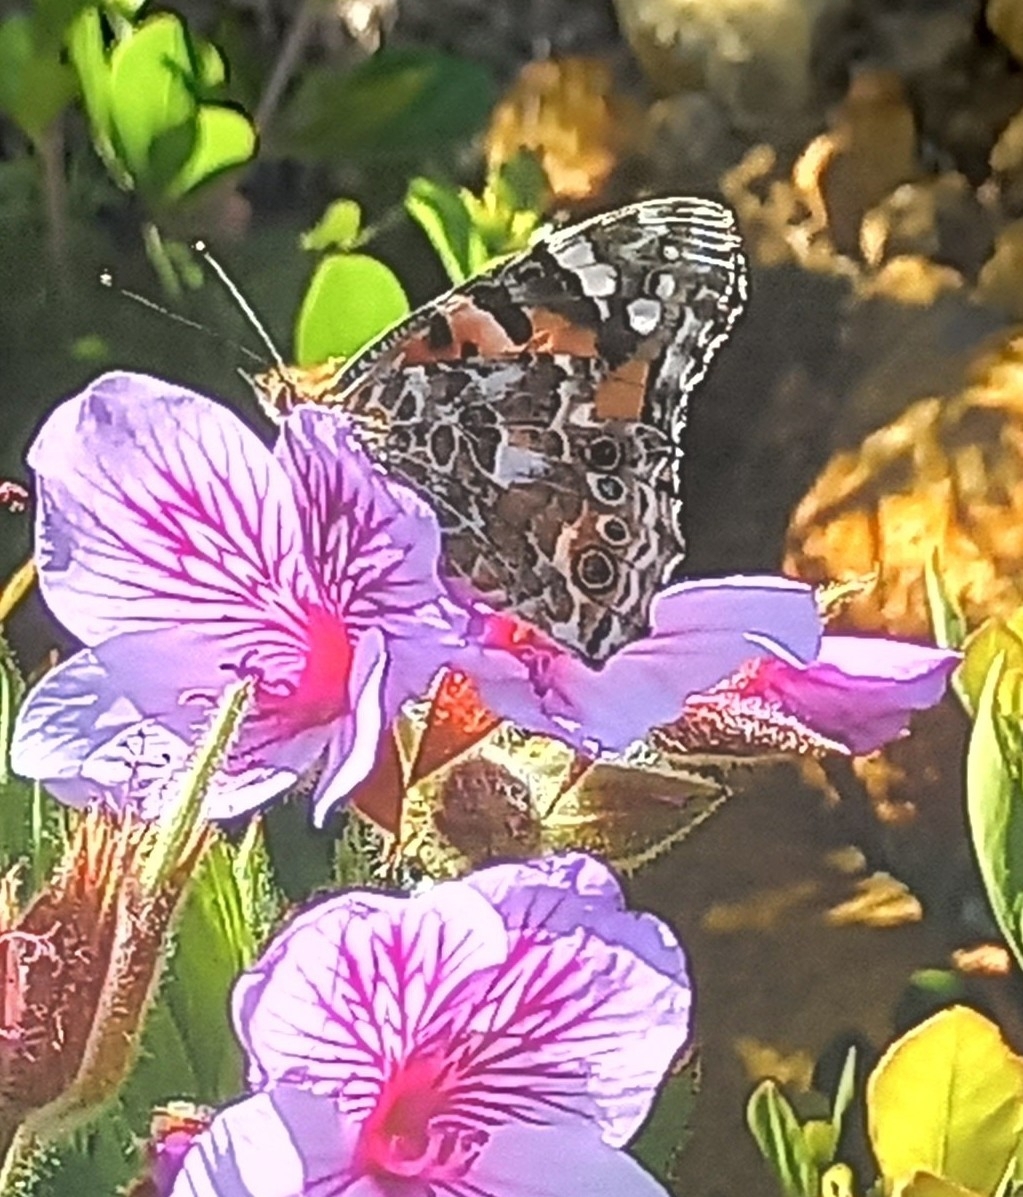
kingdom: Animalia
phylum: Arthropoda
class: Insecta
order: Lepidoptera
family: Nymphalidae
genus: Vanessa
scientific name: Vanessa cardui
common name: Painted lady
